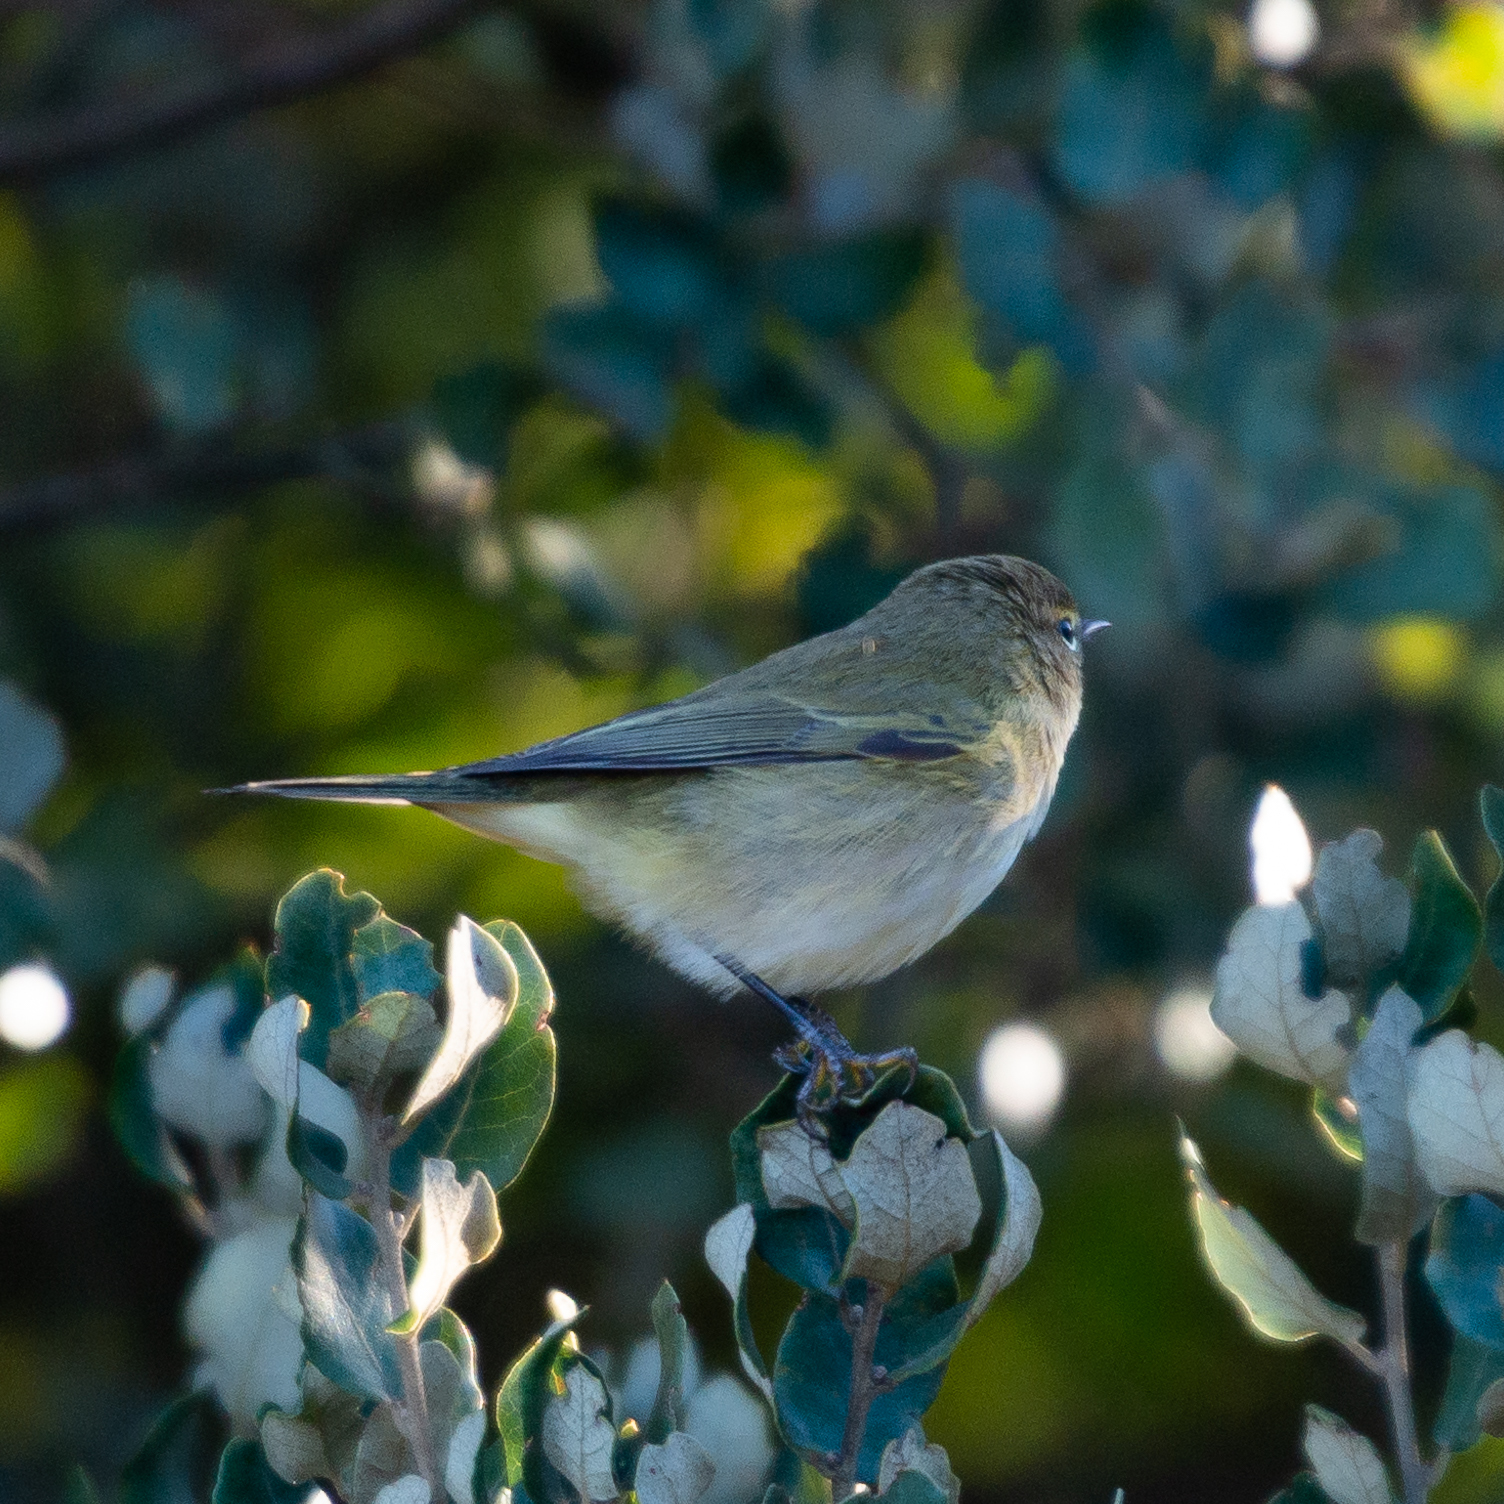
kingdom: Animalia
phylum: Chordata
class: Aves
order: Passeriformes
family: Phylloscopidae
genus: Phylloscopus
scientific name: Phylloscopus collybita
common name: Common chiffchaff
